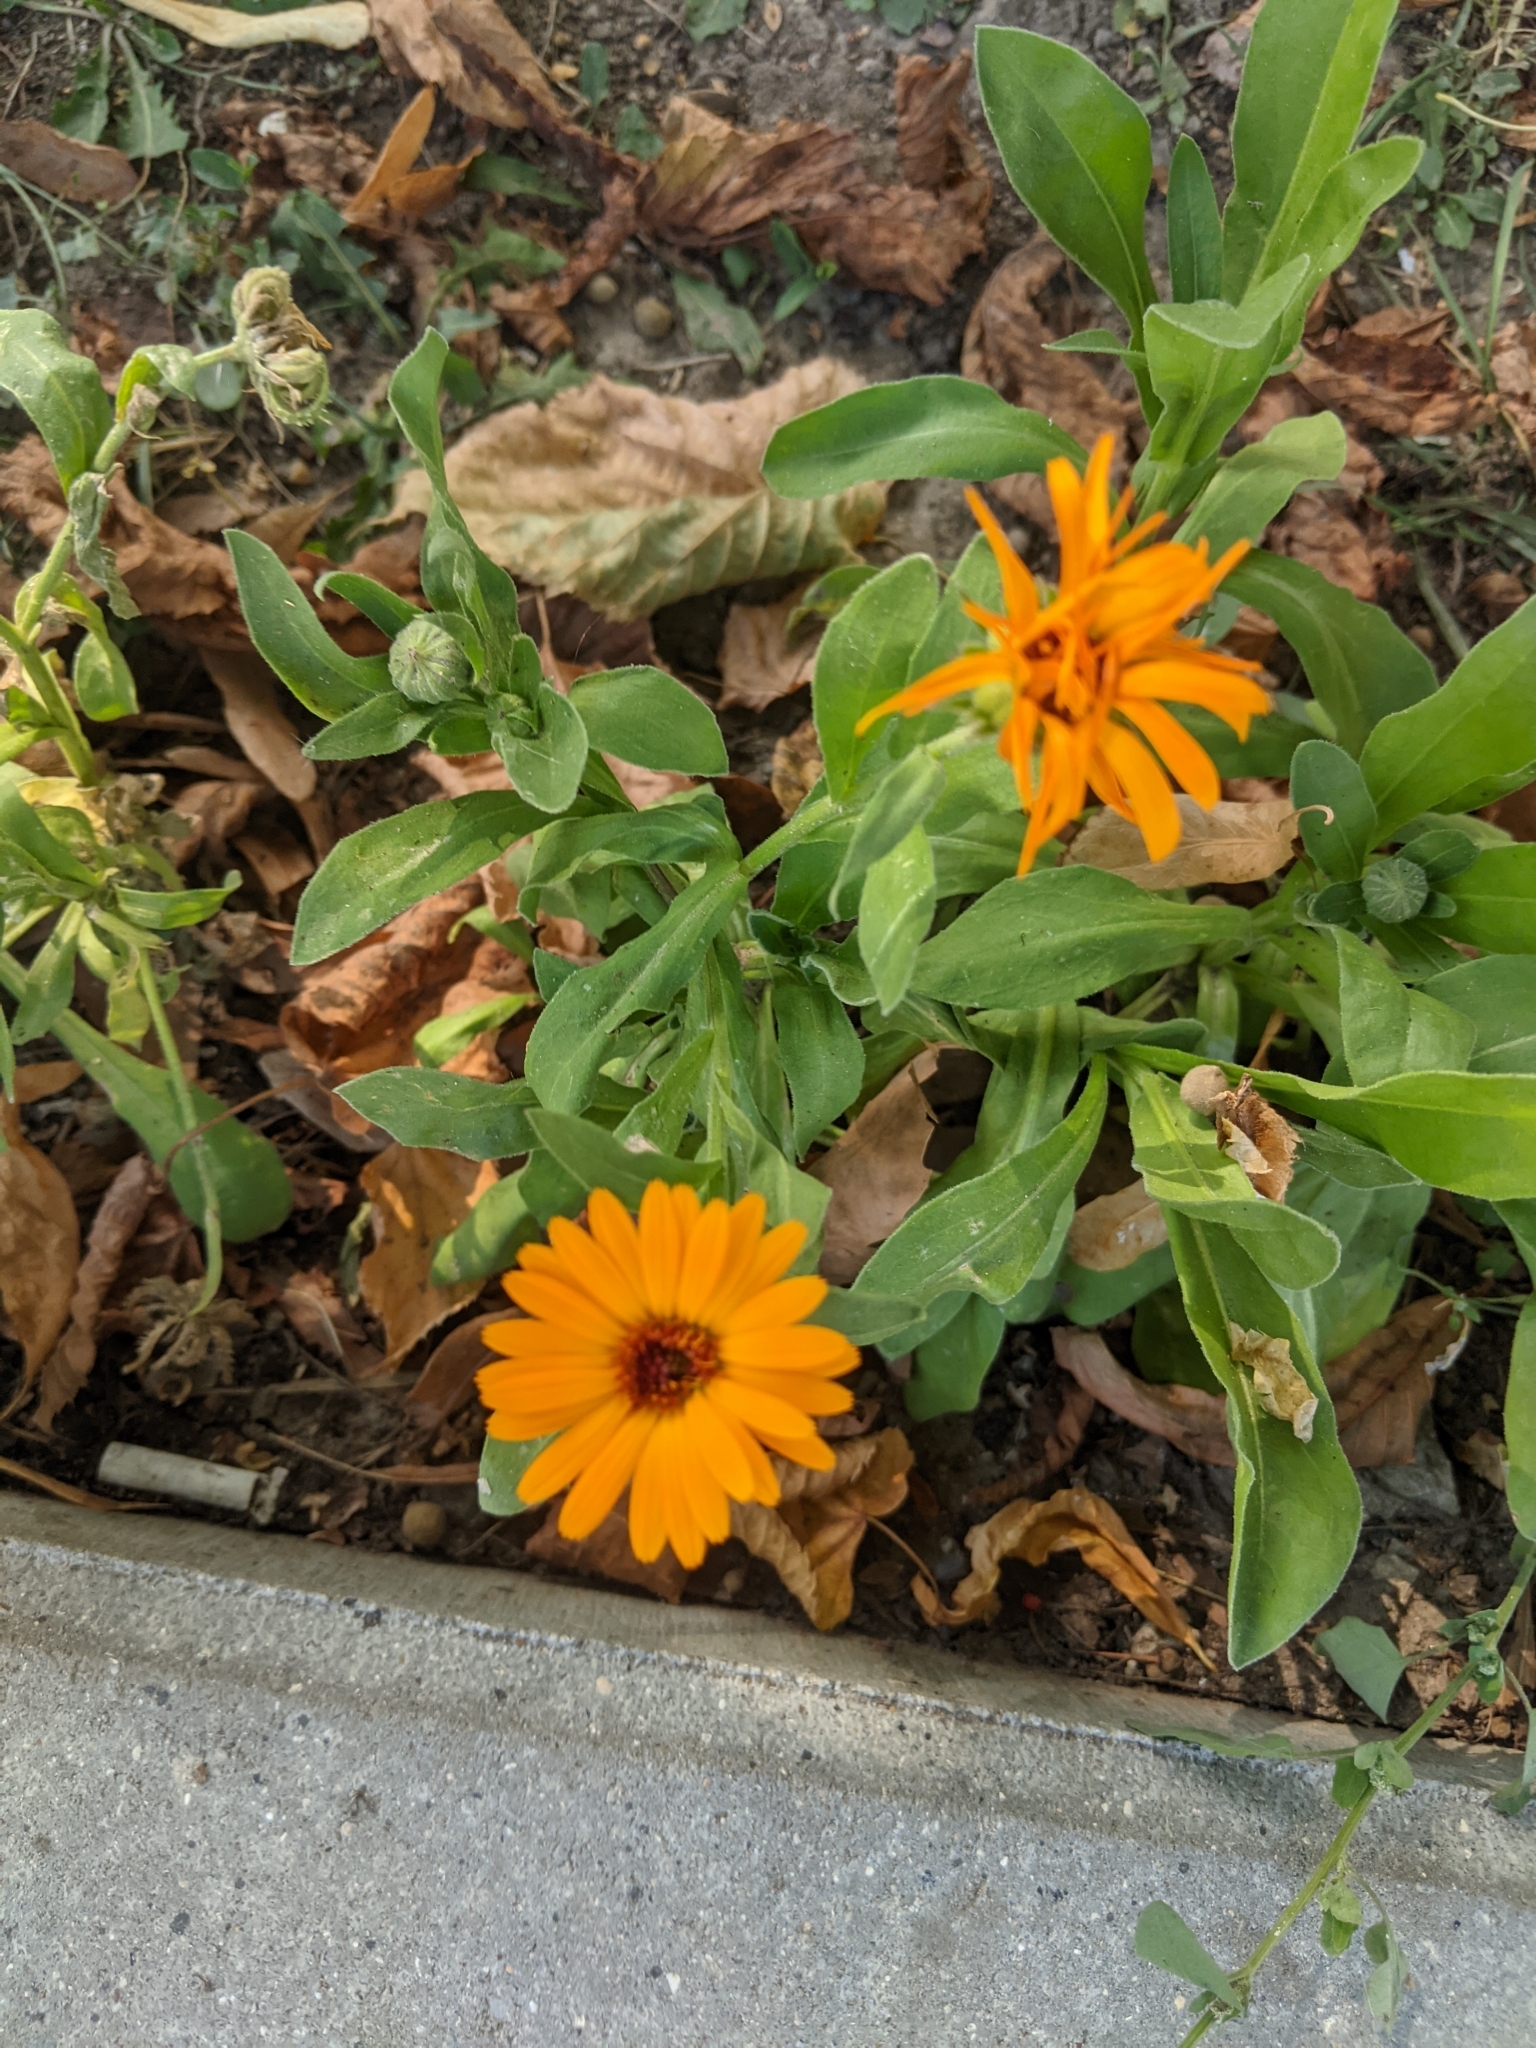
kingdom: Plantae
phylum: Tracheophyta
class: Magnoliopsida
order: Asterales
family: Asteraceae
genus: Calendula
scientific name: Calendula officinalis
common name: Pot marigold
